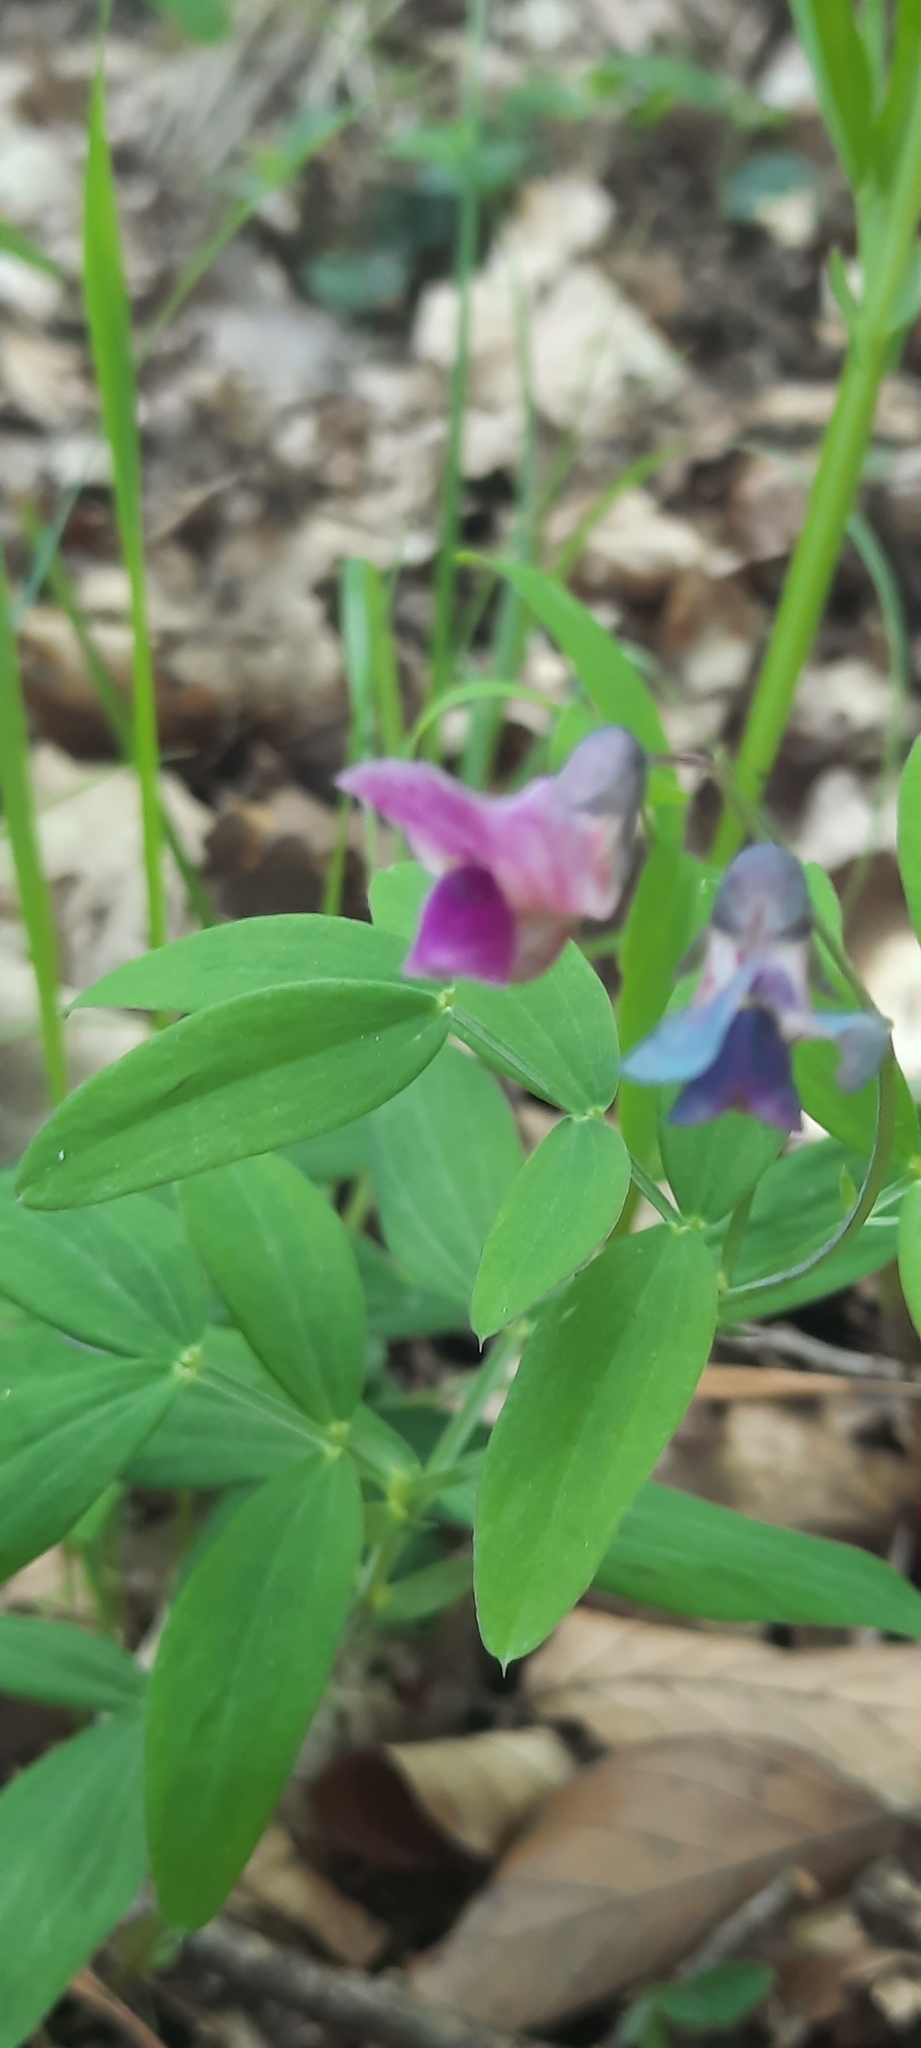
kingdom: Plantae
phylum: Tracheophyta
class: Magnoliopsida
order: Fabales
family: Fabaceae
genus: Lathyrus
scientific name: Lathyrus linifolius
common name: Bitter-vetch
